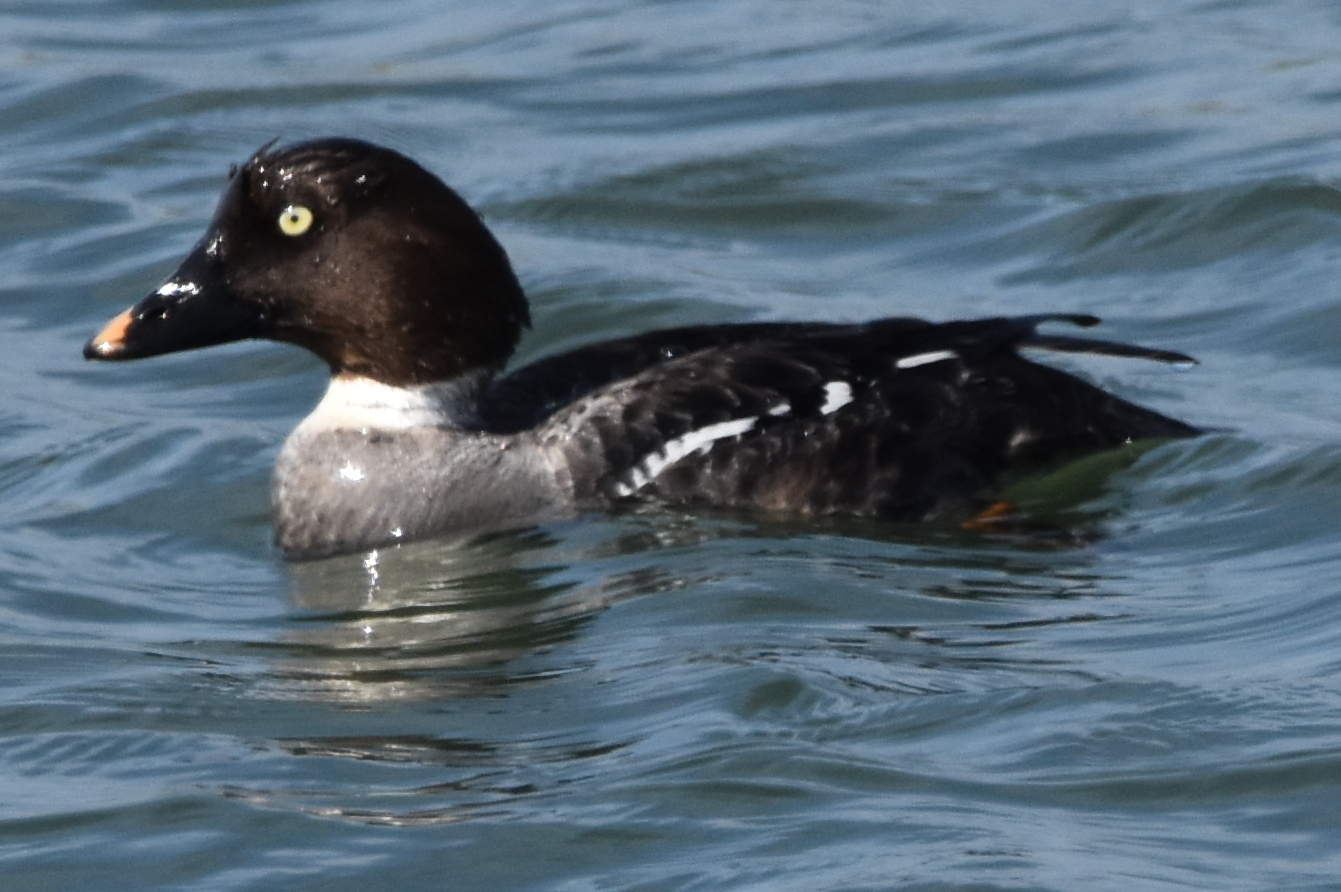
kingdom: Animalia
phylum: Chordata
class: Aves
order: Anseriformes
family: Anatidae
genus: Bucephala
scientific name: Bucephala clangula
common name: Common goldeneye
